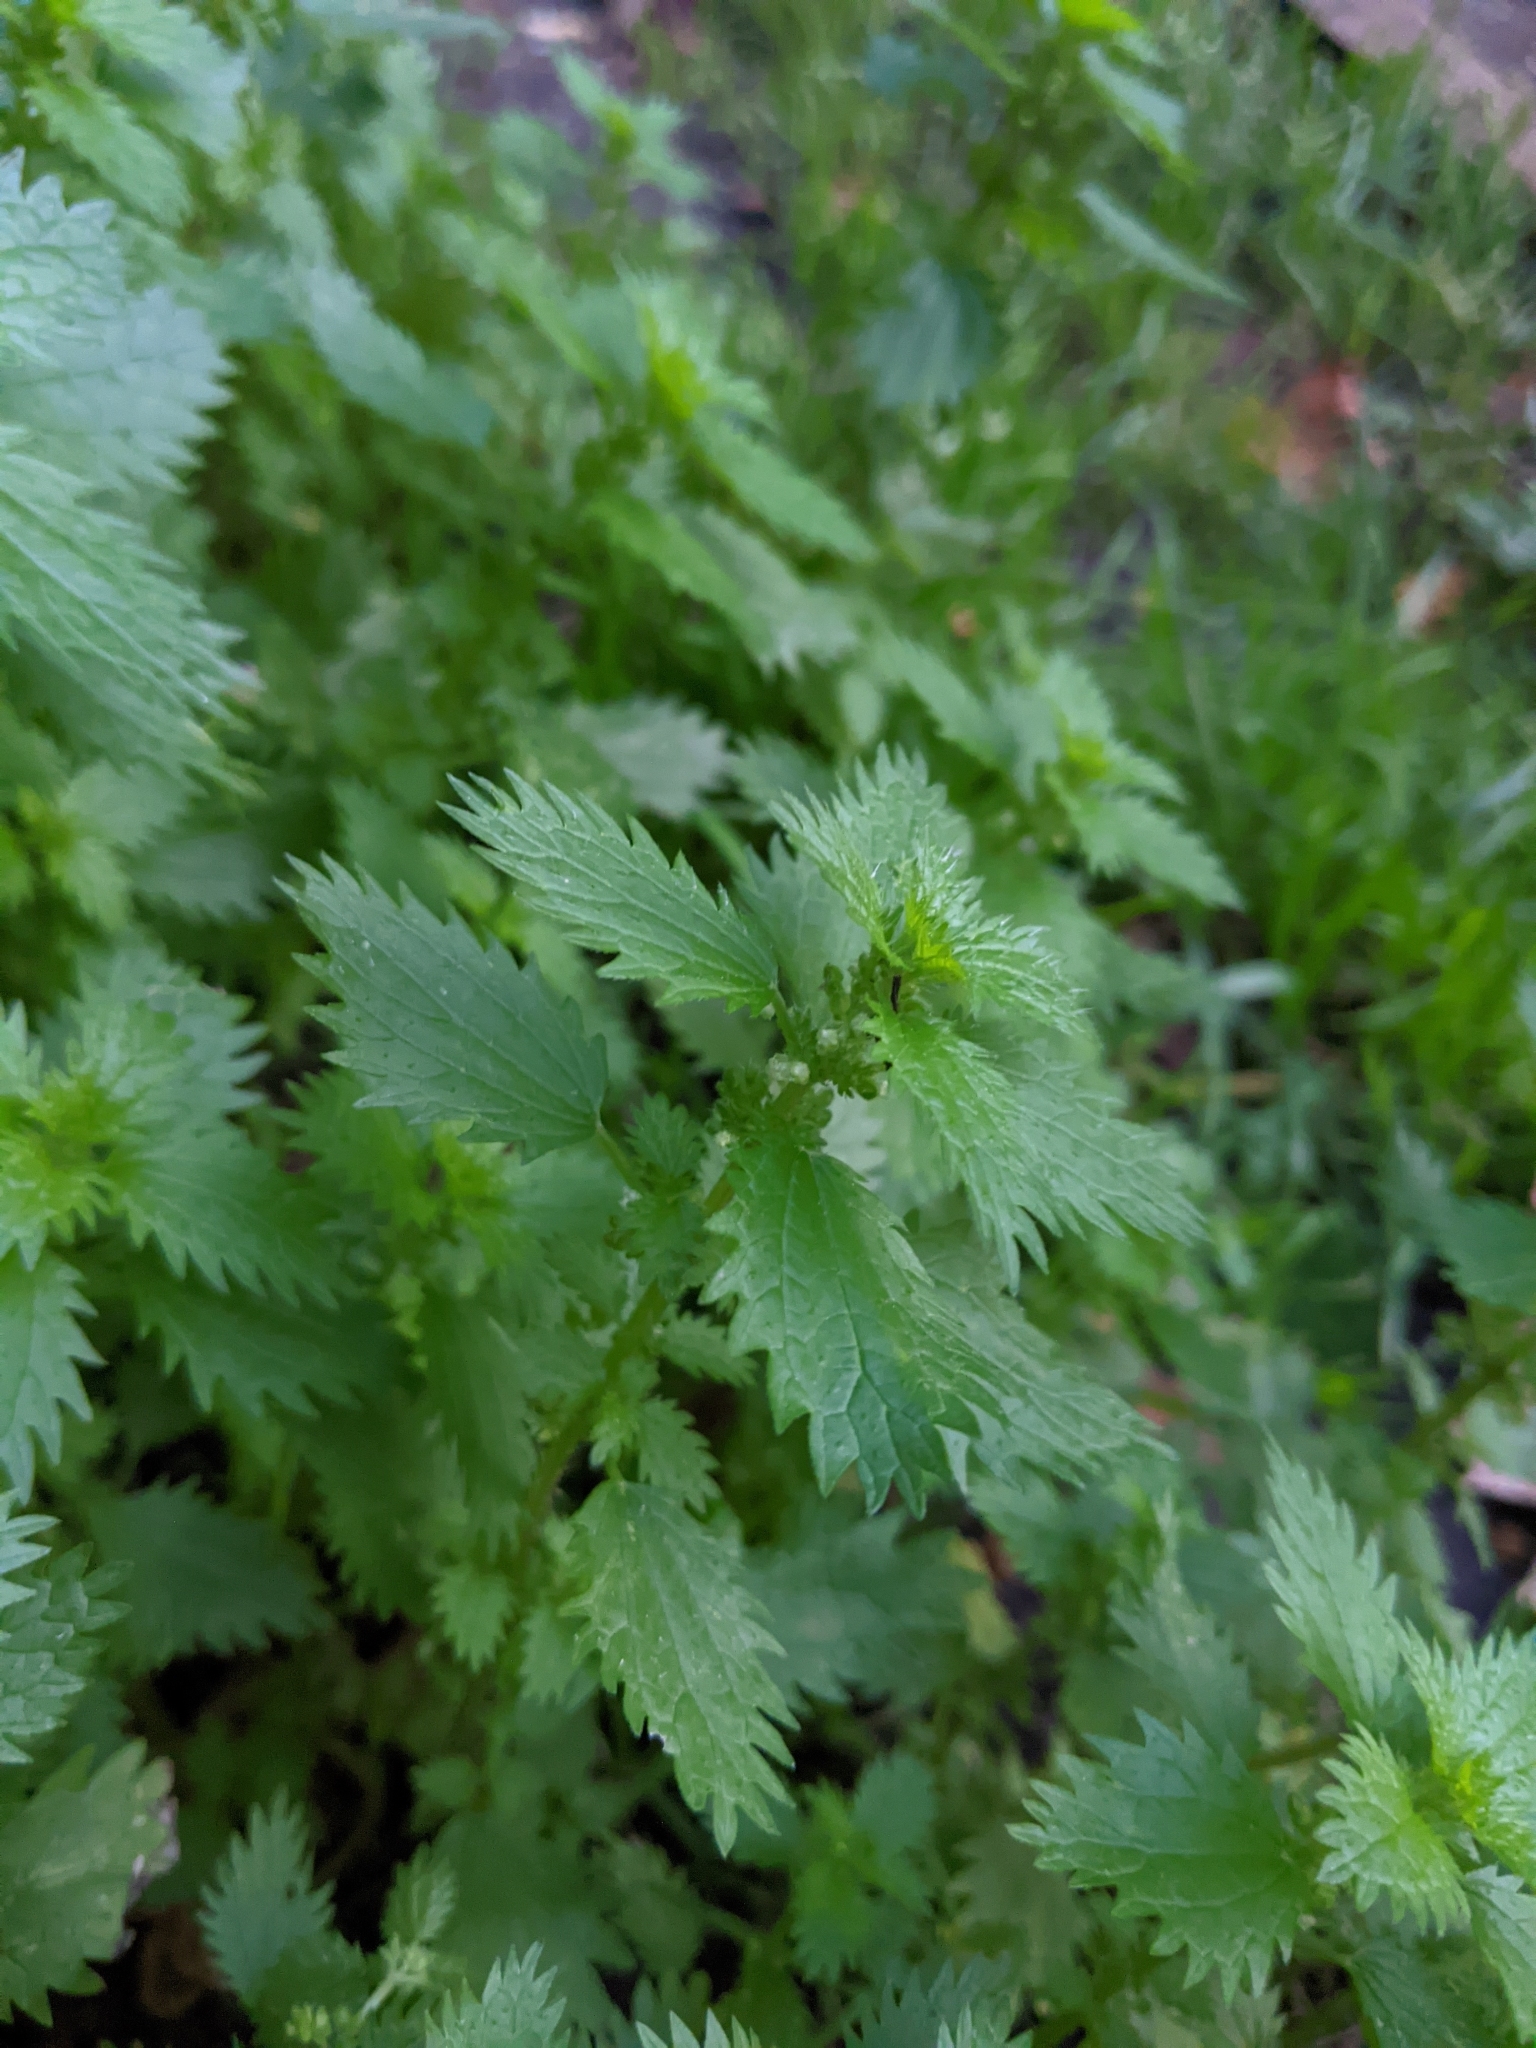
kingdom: Plantae
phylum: Tracheophyta
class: Magnoliopsida
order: Rosales
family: Urticaceae
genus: Urtica
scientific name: Urtica urens
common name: Dwarf nettle
